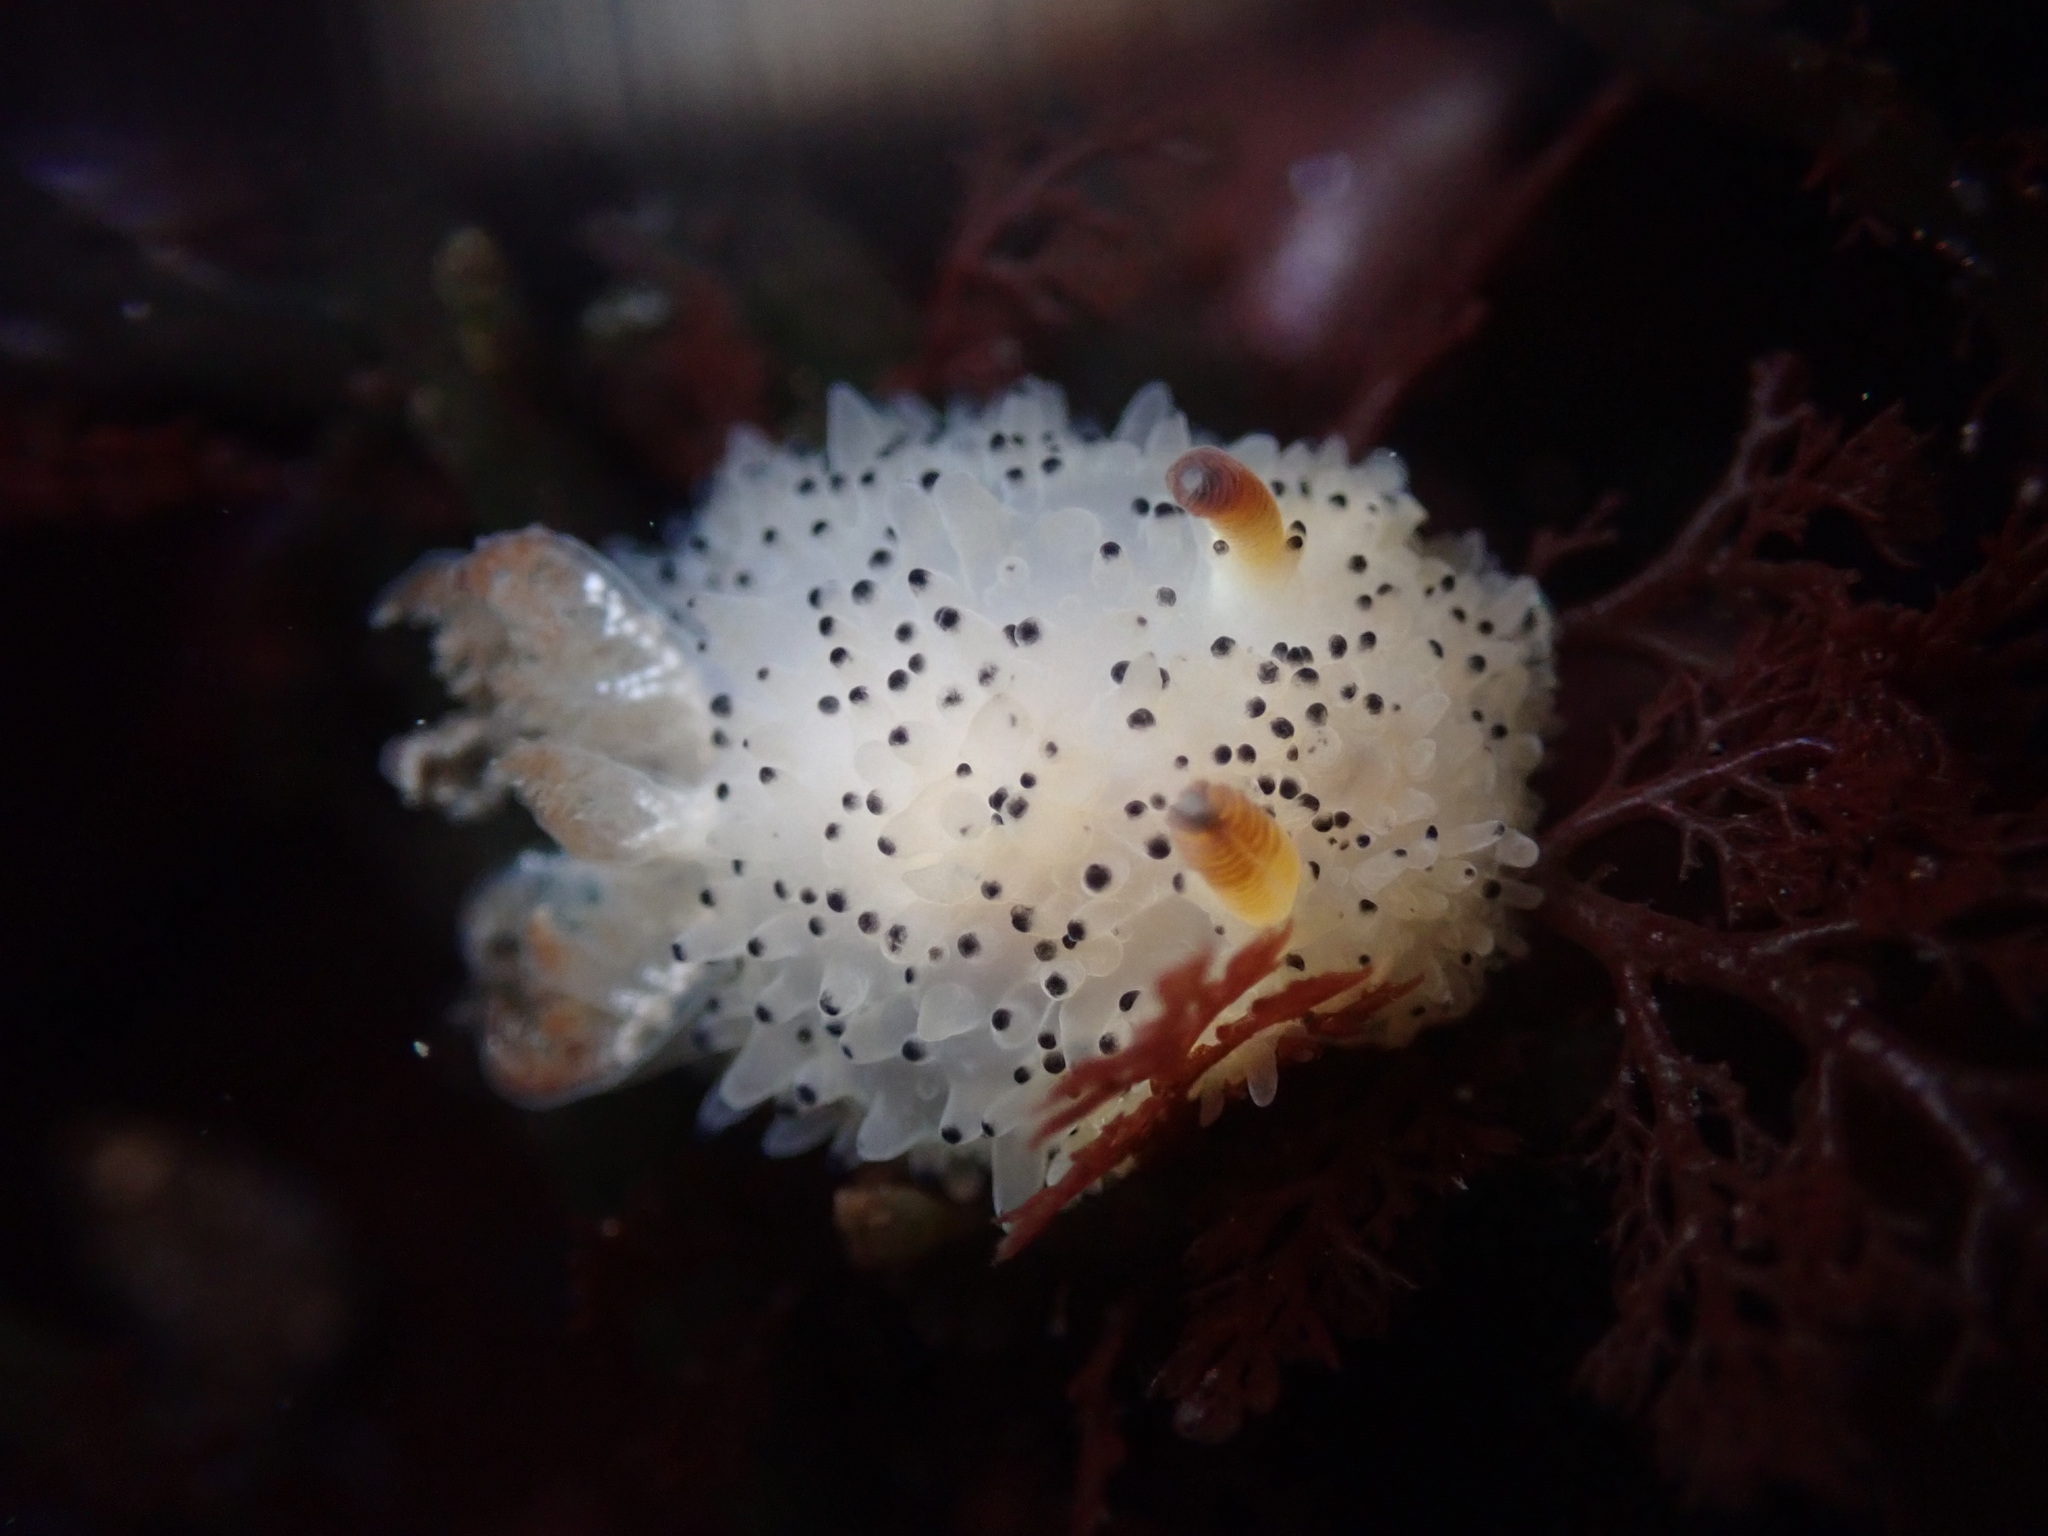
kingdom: Animalia
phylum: Mollusca
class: Gastropoda
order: Nudibranchia
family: Onchidorididae
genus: Acanthodoris
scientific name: Acanthodoris rhodoceras
